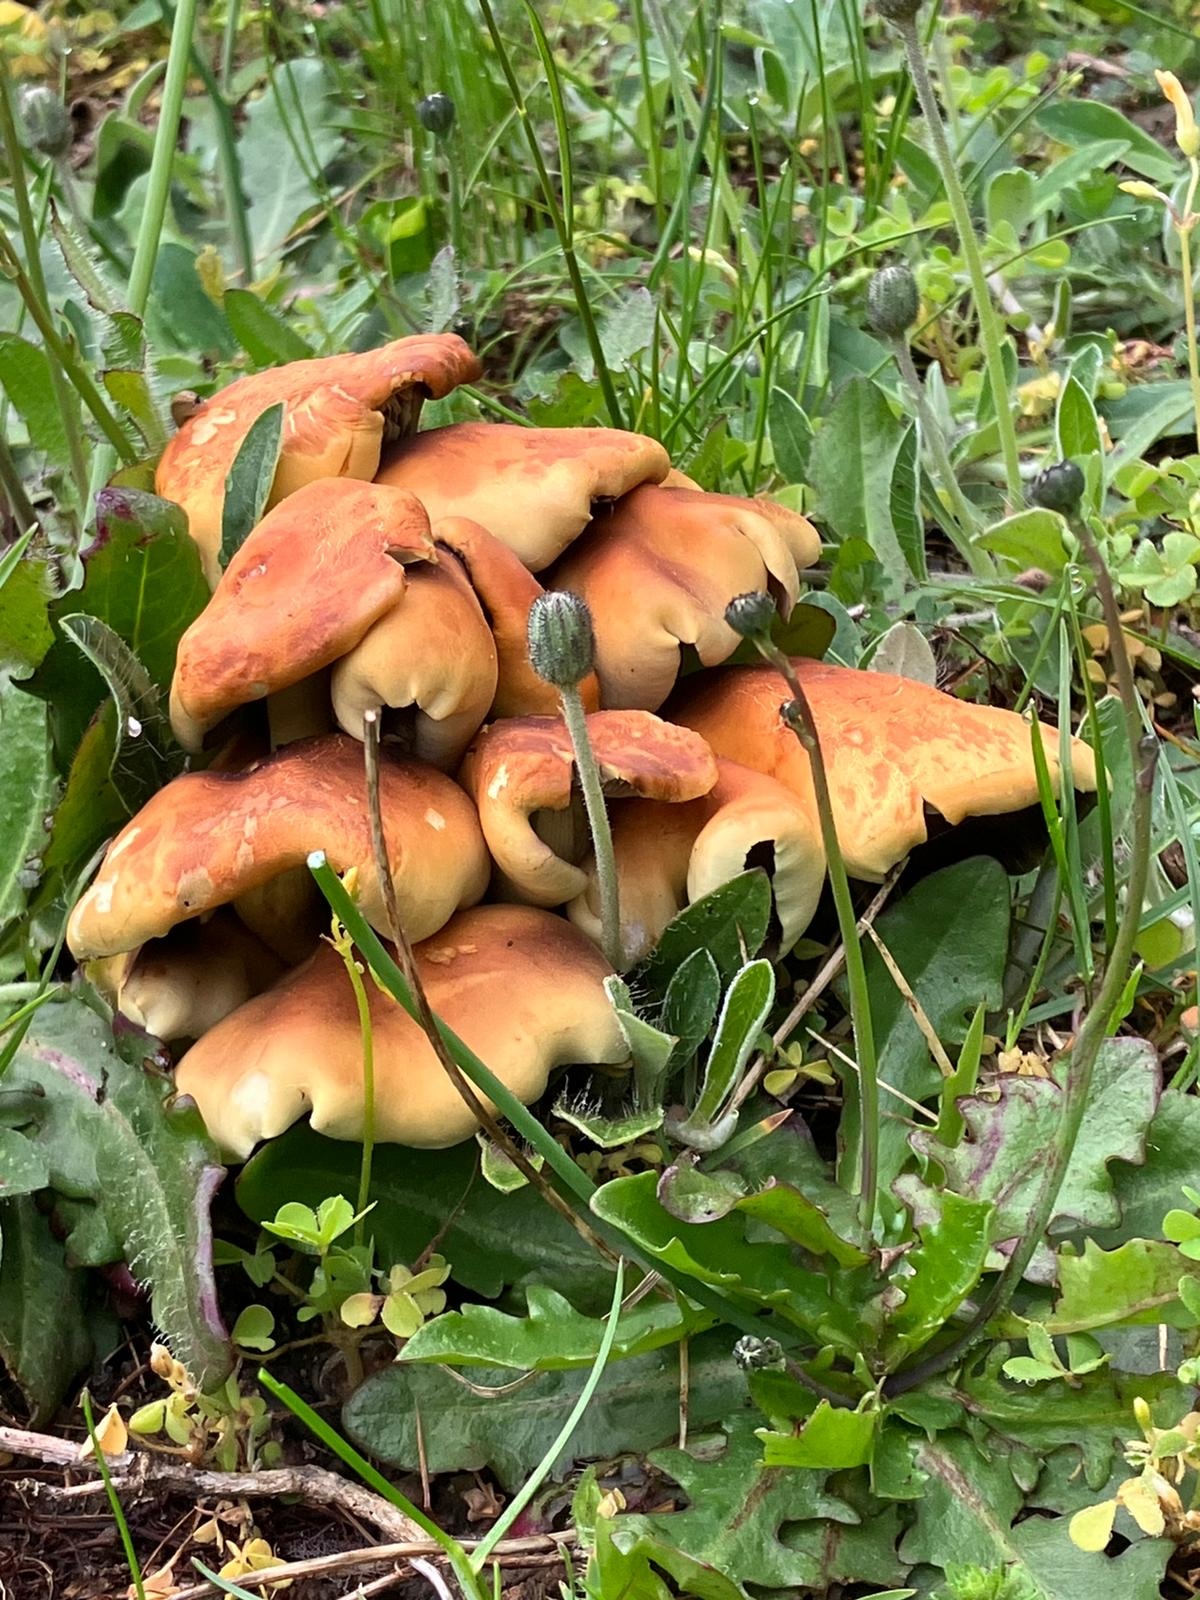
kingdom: Fungi
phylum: Basidiomycota
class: Agaricomycetes
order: Agaricales
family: Strophariaceae
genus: Hypholoma
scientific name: Hypholoma fasciculare
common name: Sulphur tuft
